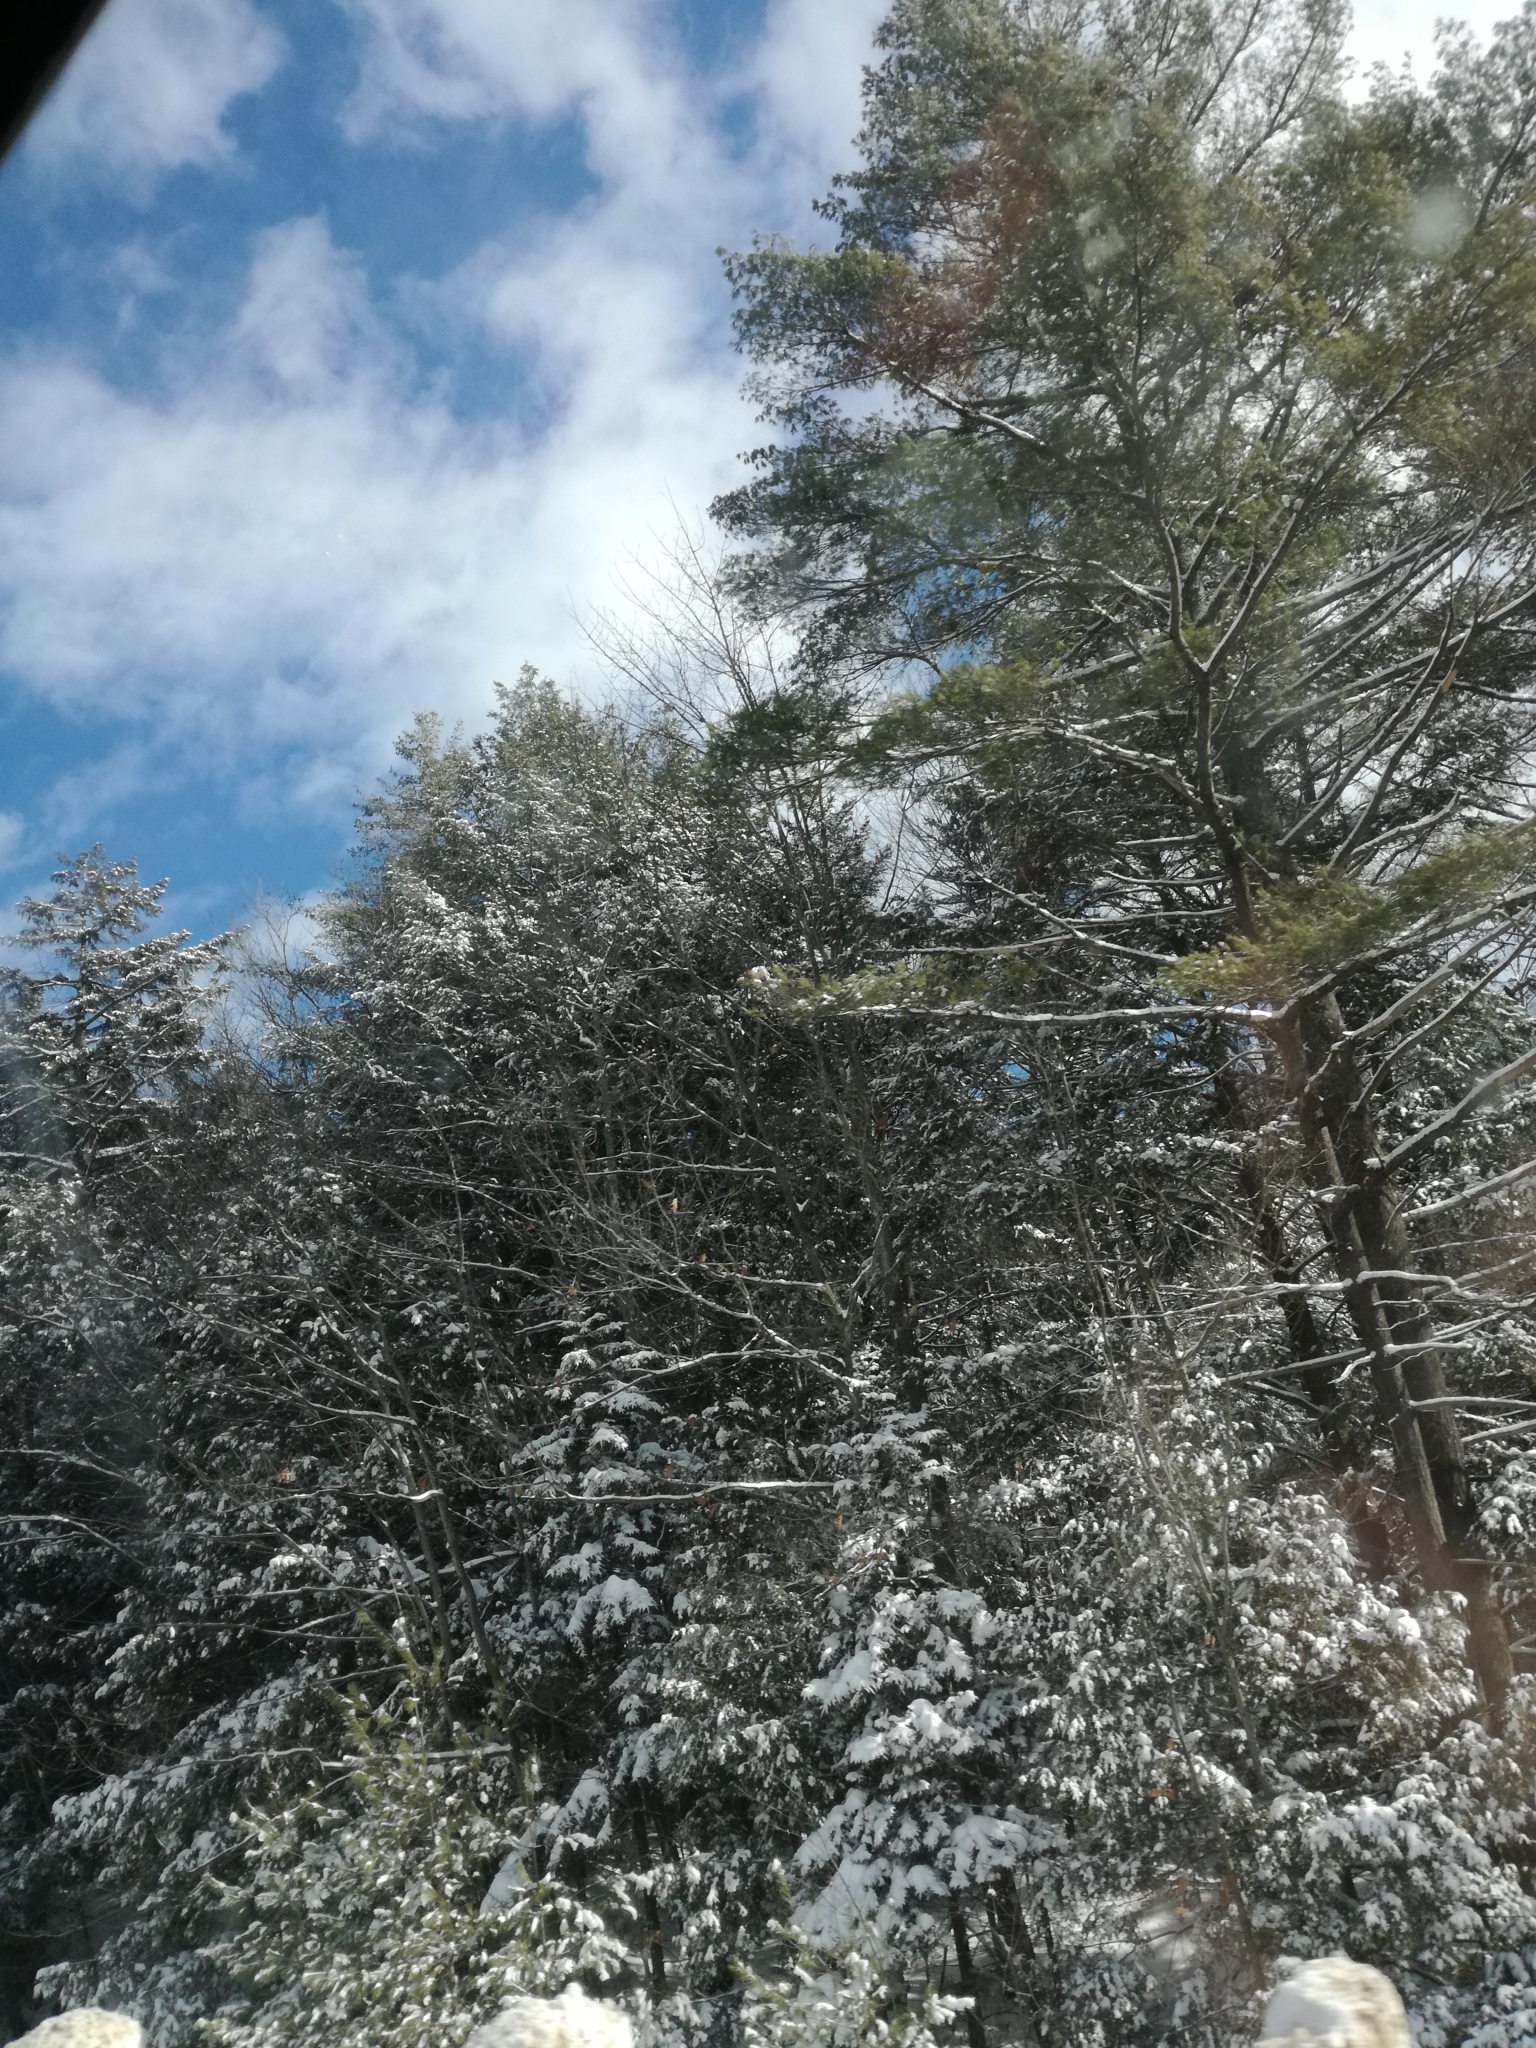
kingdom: Plantae
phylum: Tracheophyta
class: Pinopsida
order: Pinales
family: Pinaceae
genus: Pinus
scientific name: Pinus strobus
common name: Weymouth pine
